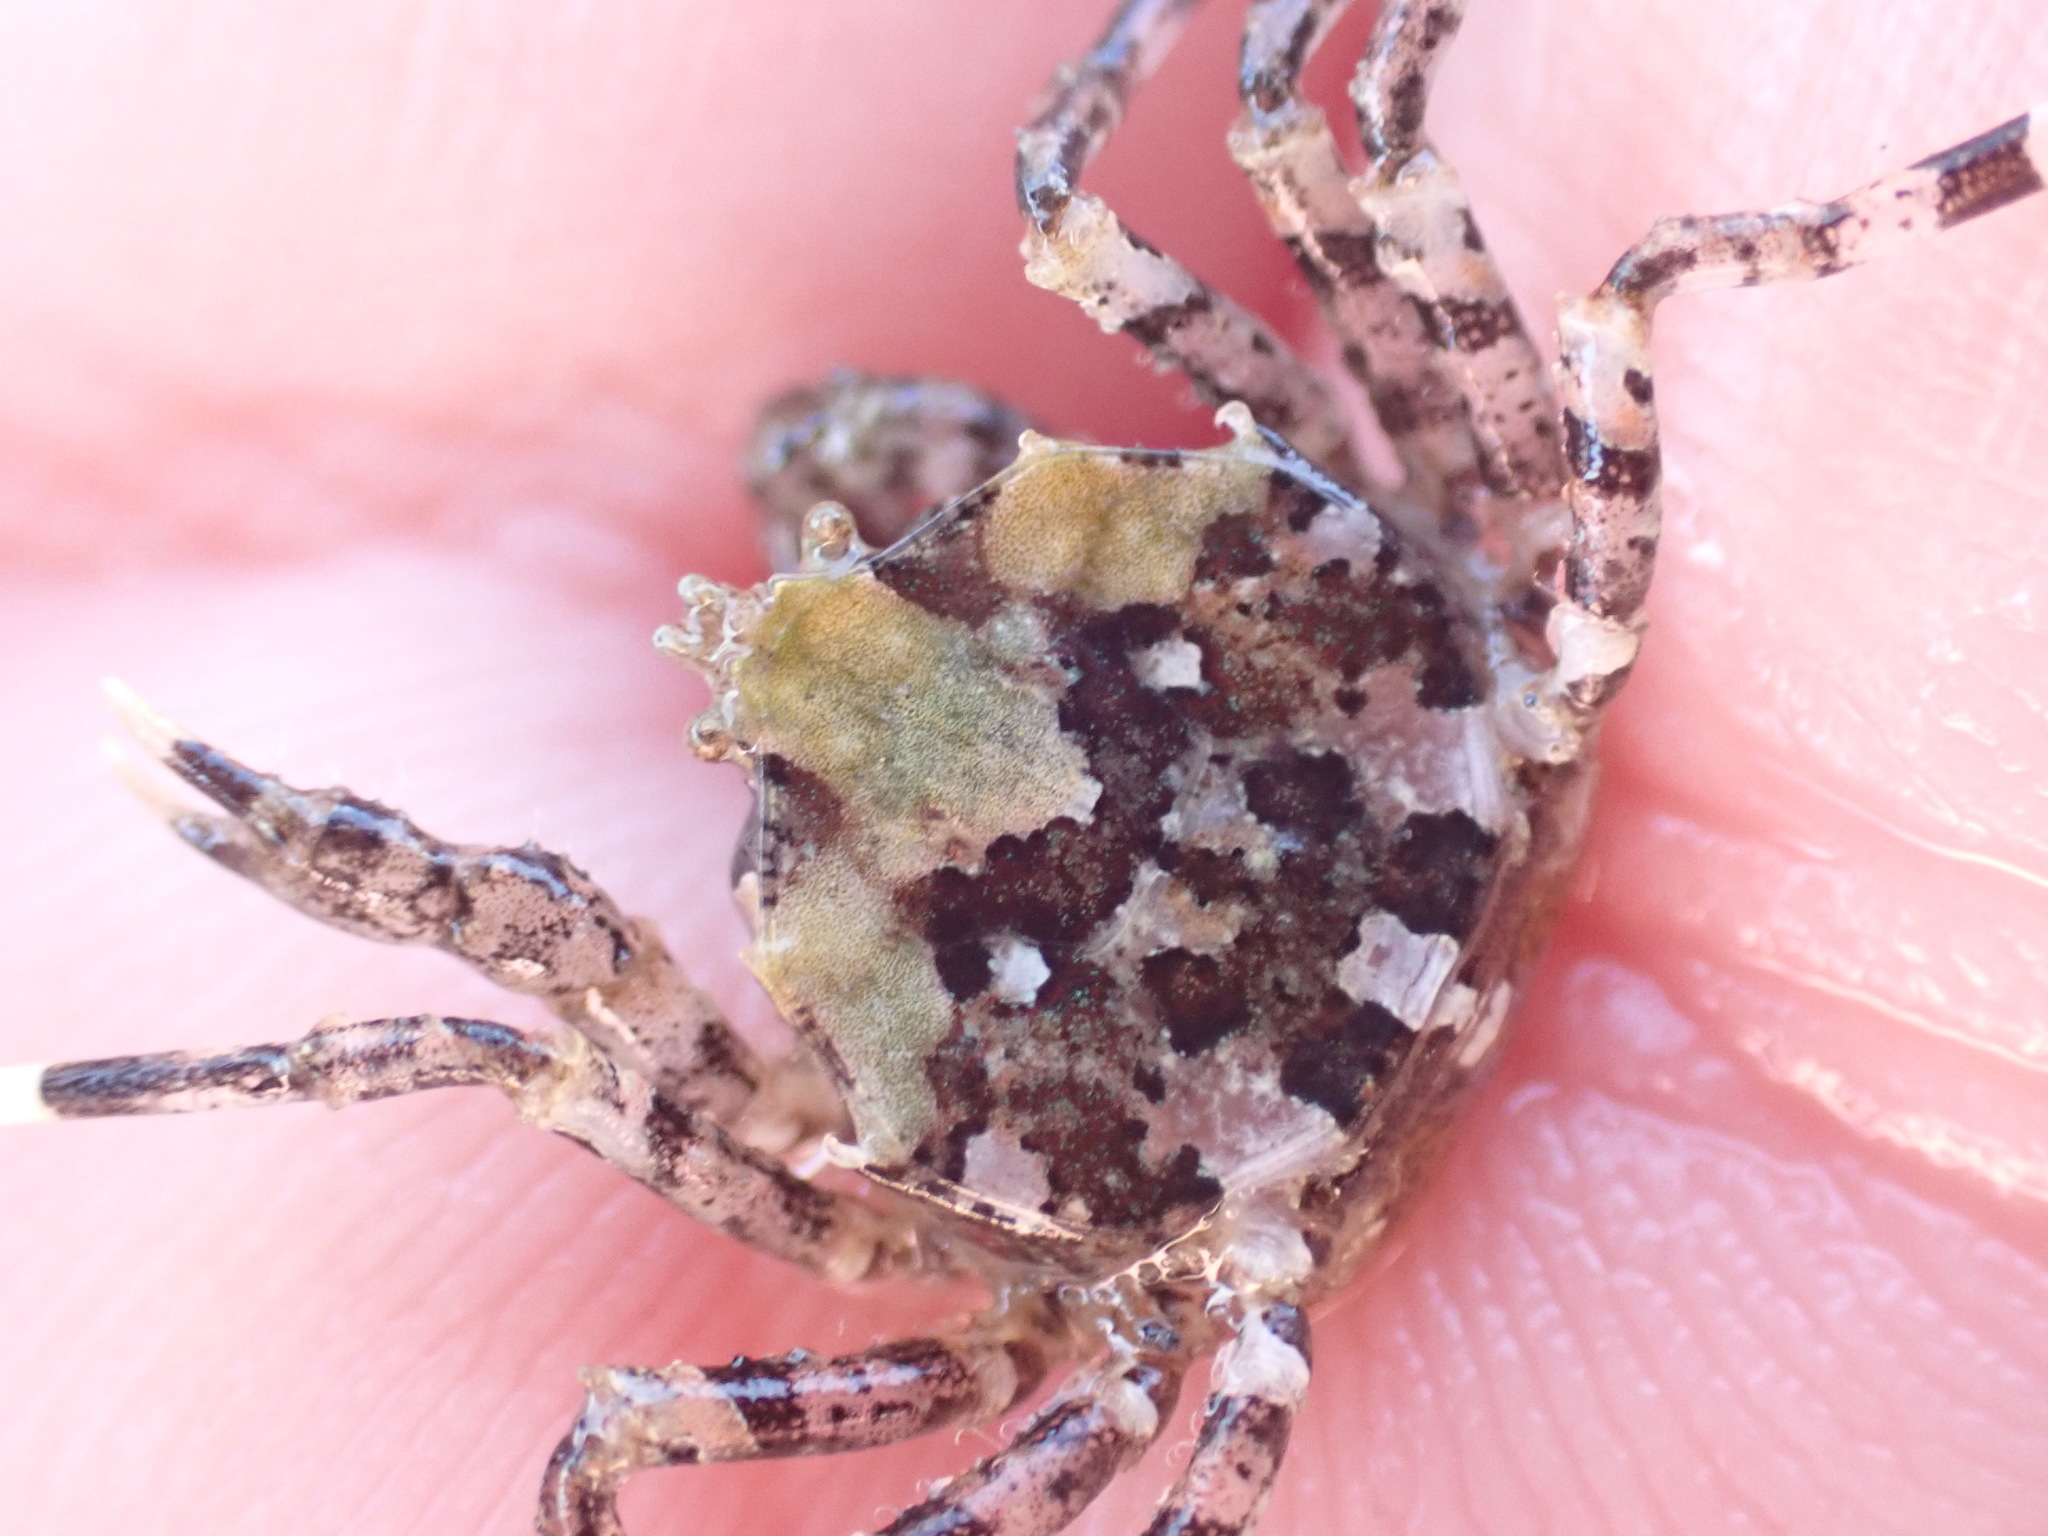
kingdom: Animalia
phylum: Arthropoda
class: Malacostraca
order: Decapoda
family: Hymenosomatidae
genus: Halicarcinus
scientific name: Halicarcinus cookii
